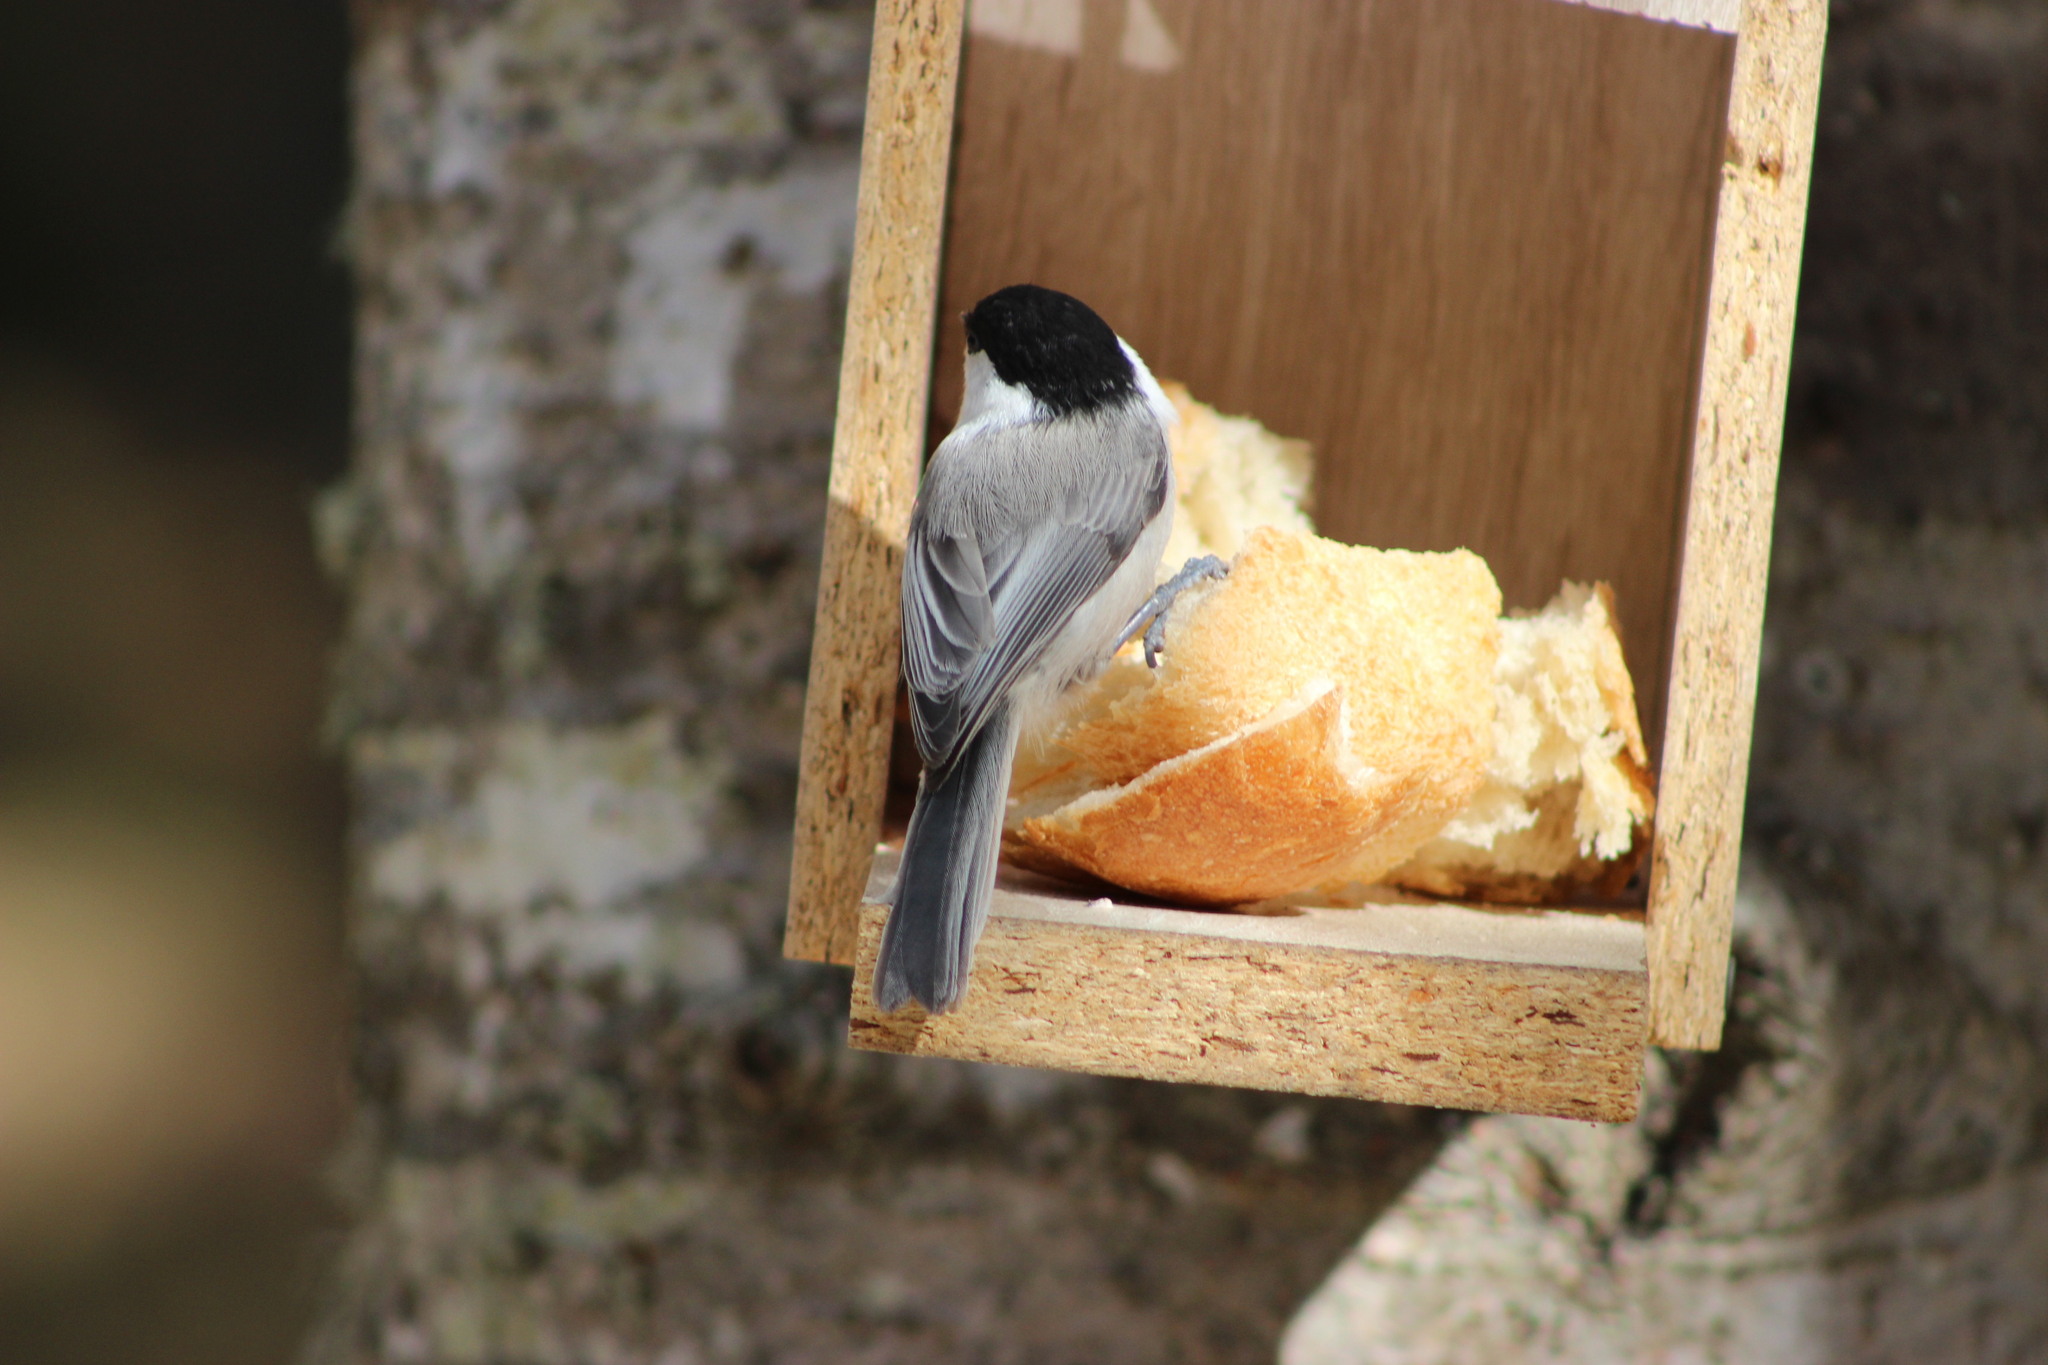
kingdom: Animalia
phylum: Chordata
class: Aves
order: Passeriformes
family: Paridae
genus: Poecile
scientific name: Poecile montanus
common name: Willow tit
